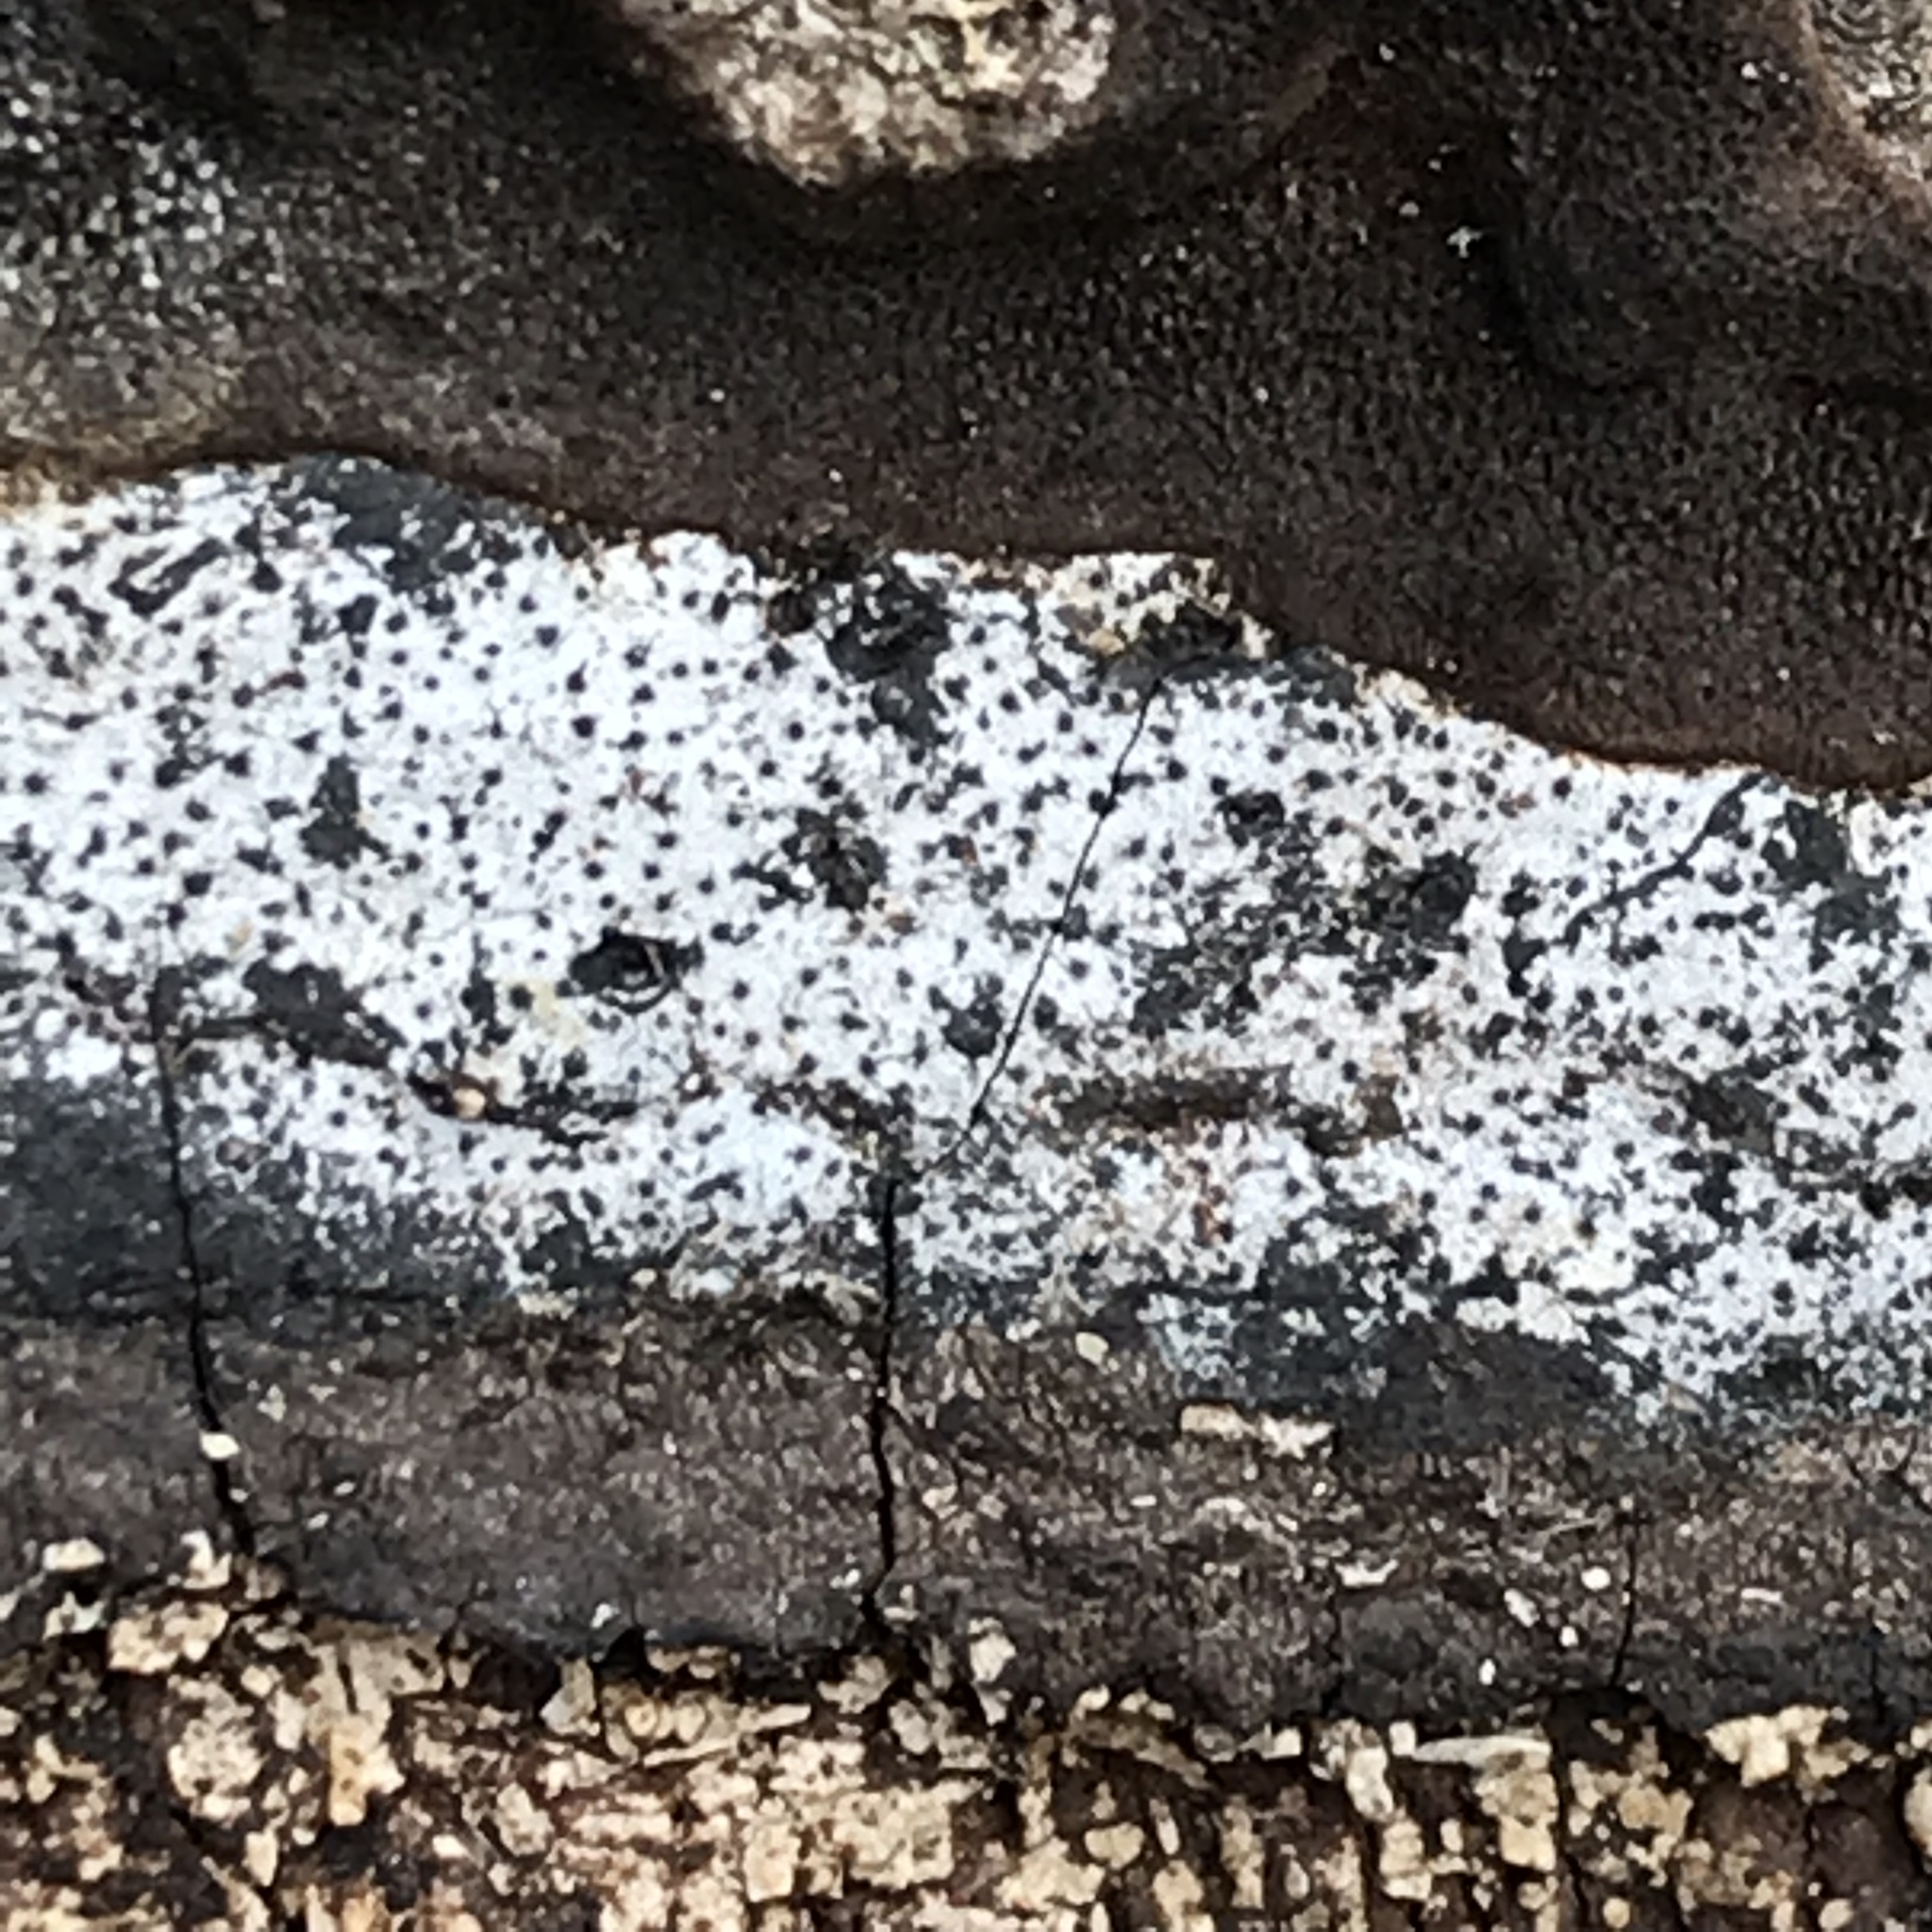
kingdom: Fungi
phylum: Ascomycota
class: Sordariomycetes
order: Xylariales
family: Graphostromataceae
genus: Biscogniauxia
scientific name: Biscogniauxia atropunctata
